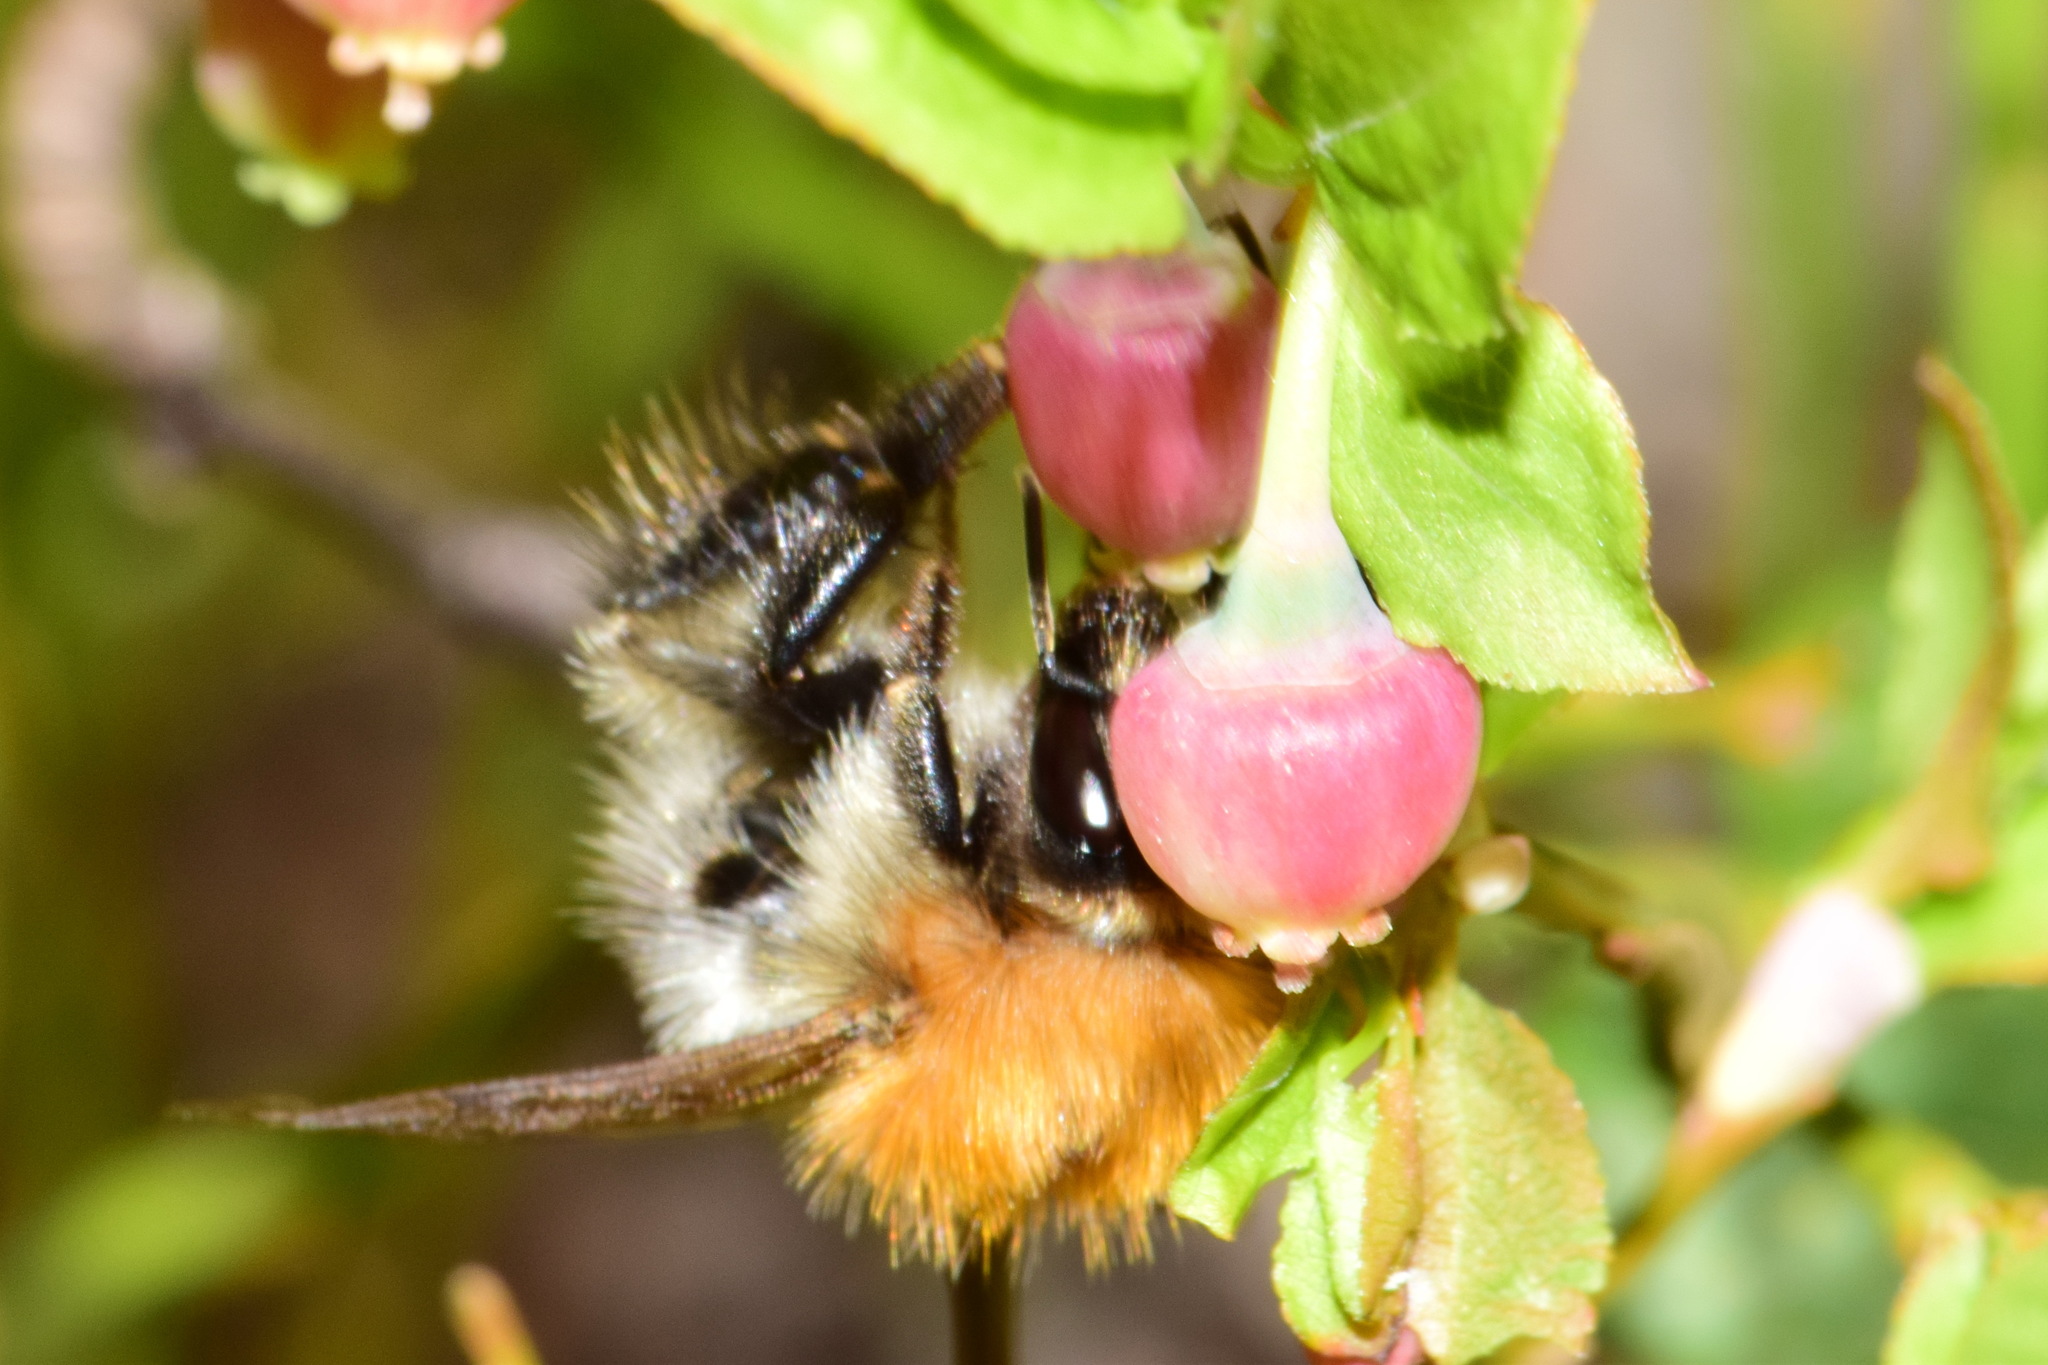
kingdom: Animalia
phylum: Arthropoda
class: Insecta
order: Hymenoptera
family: Apidae
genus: Bombus
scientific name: Bombus pascuorum
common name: Common carder bee
